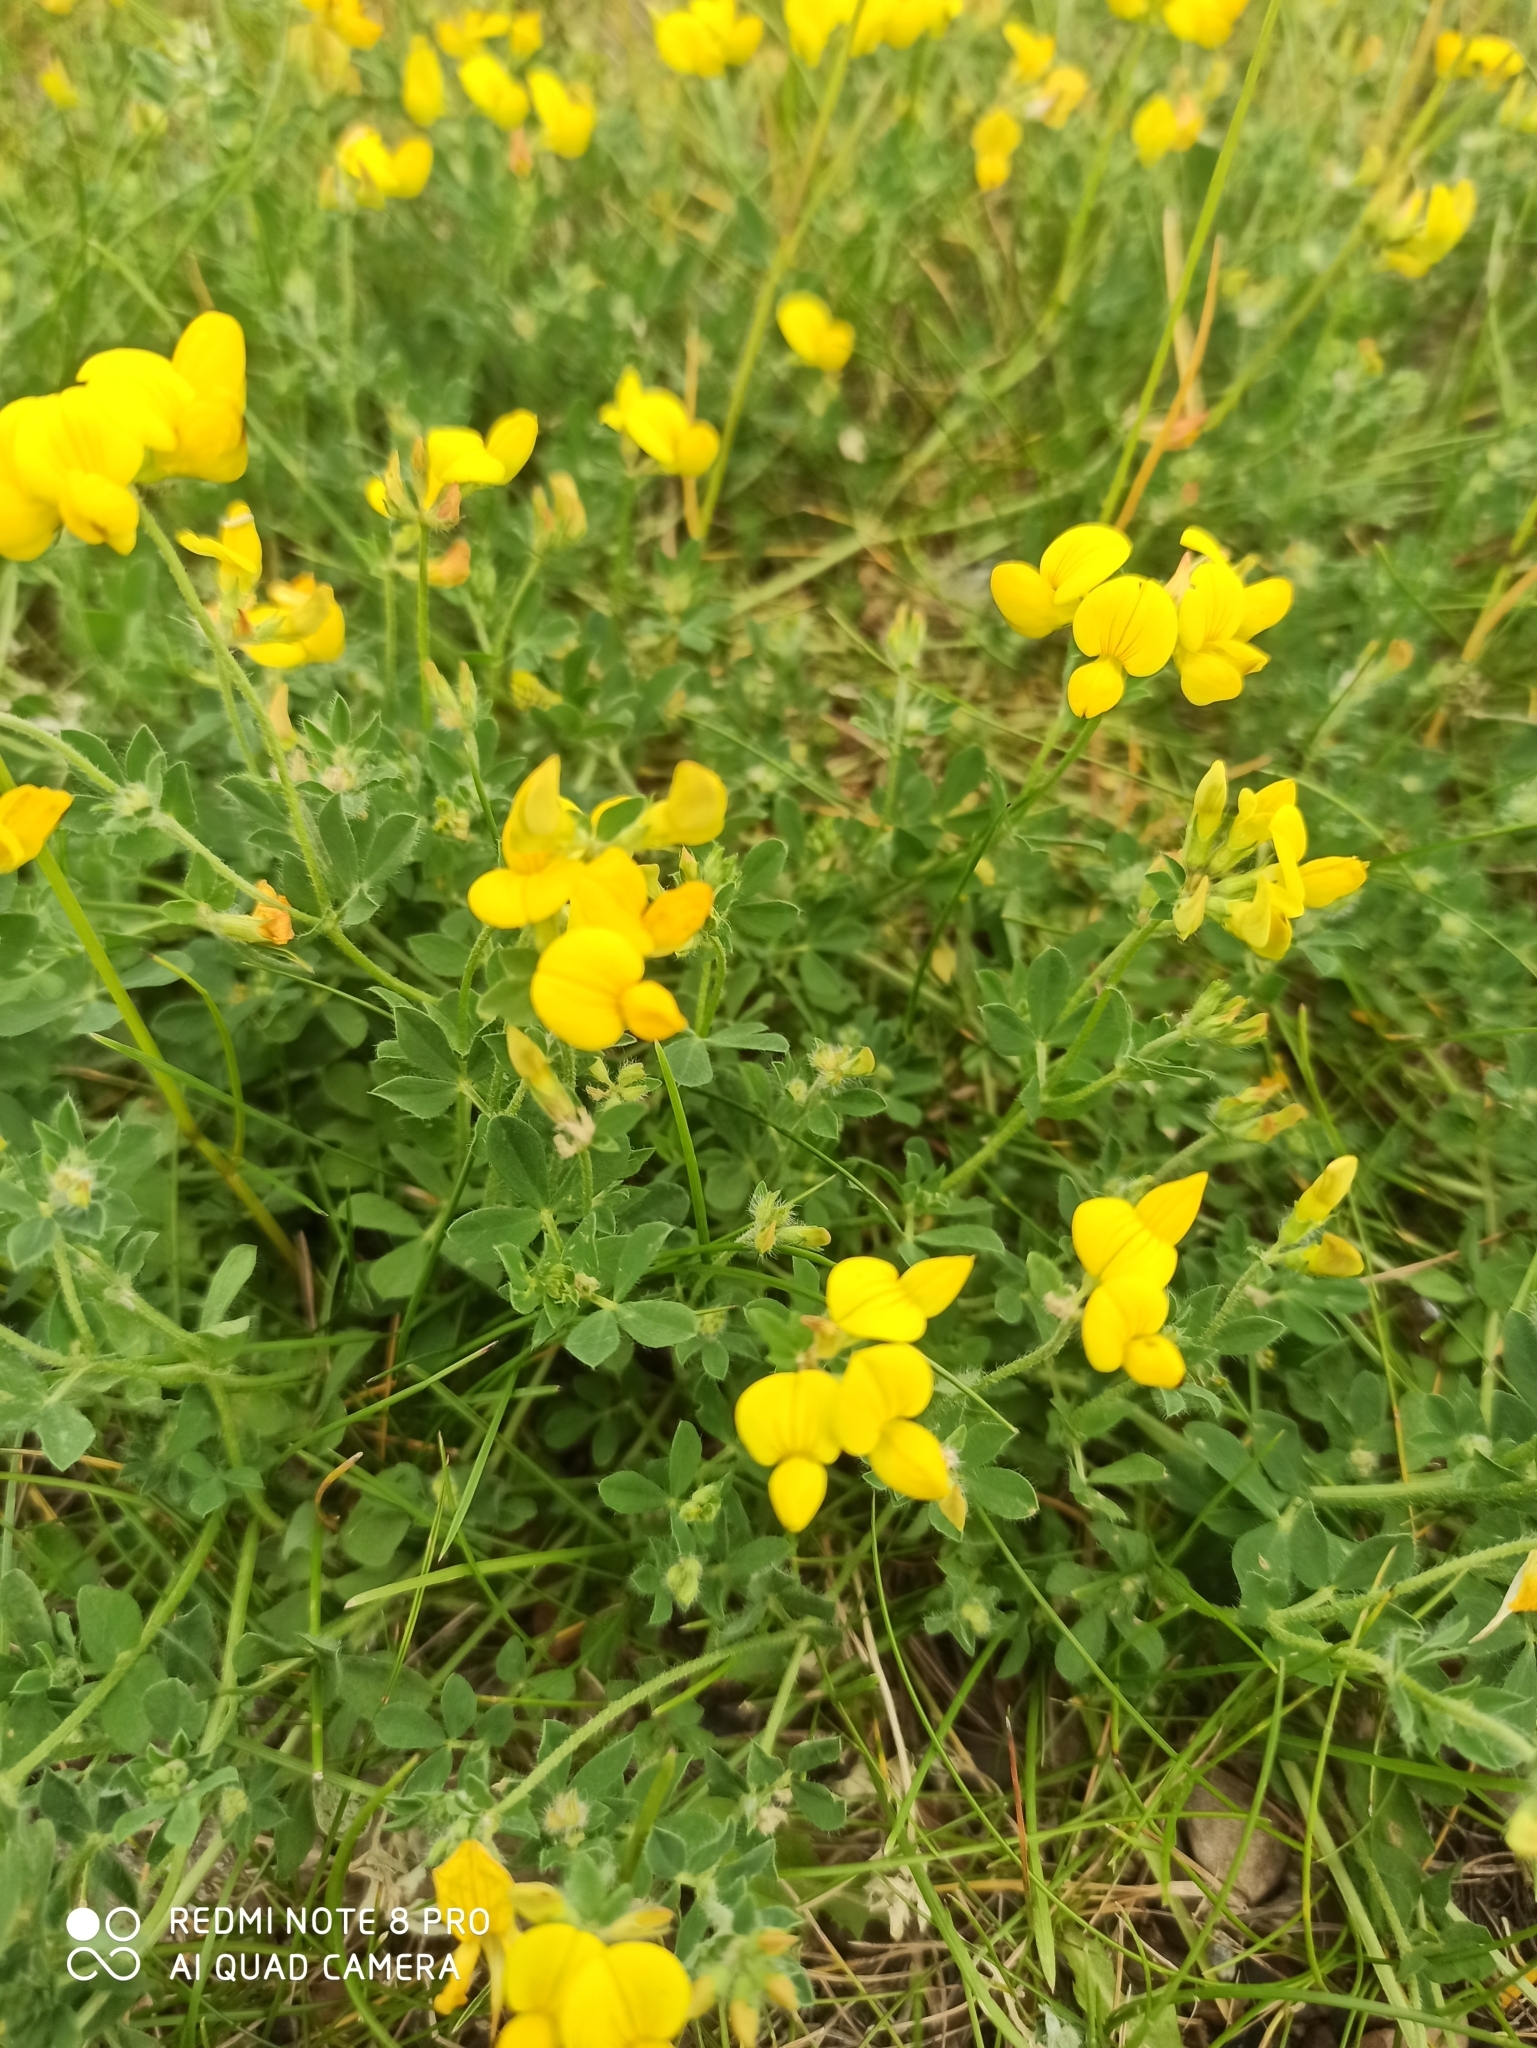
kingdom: Plantae
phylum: Tracheophyta
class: Magnoliopsida
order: Fabales
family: Fabaceae
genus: Lotus
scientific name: Lotus corniculatus
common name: Common bird's-foot-trefoil
